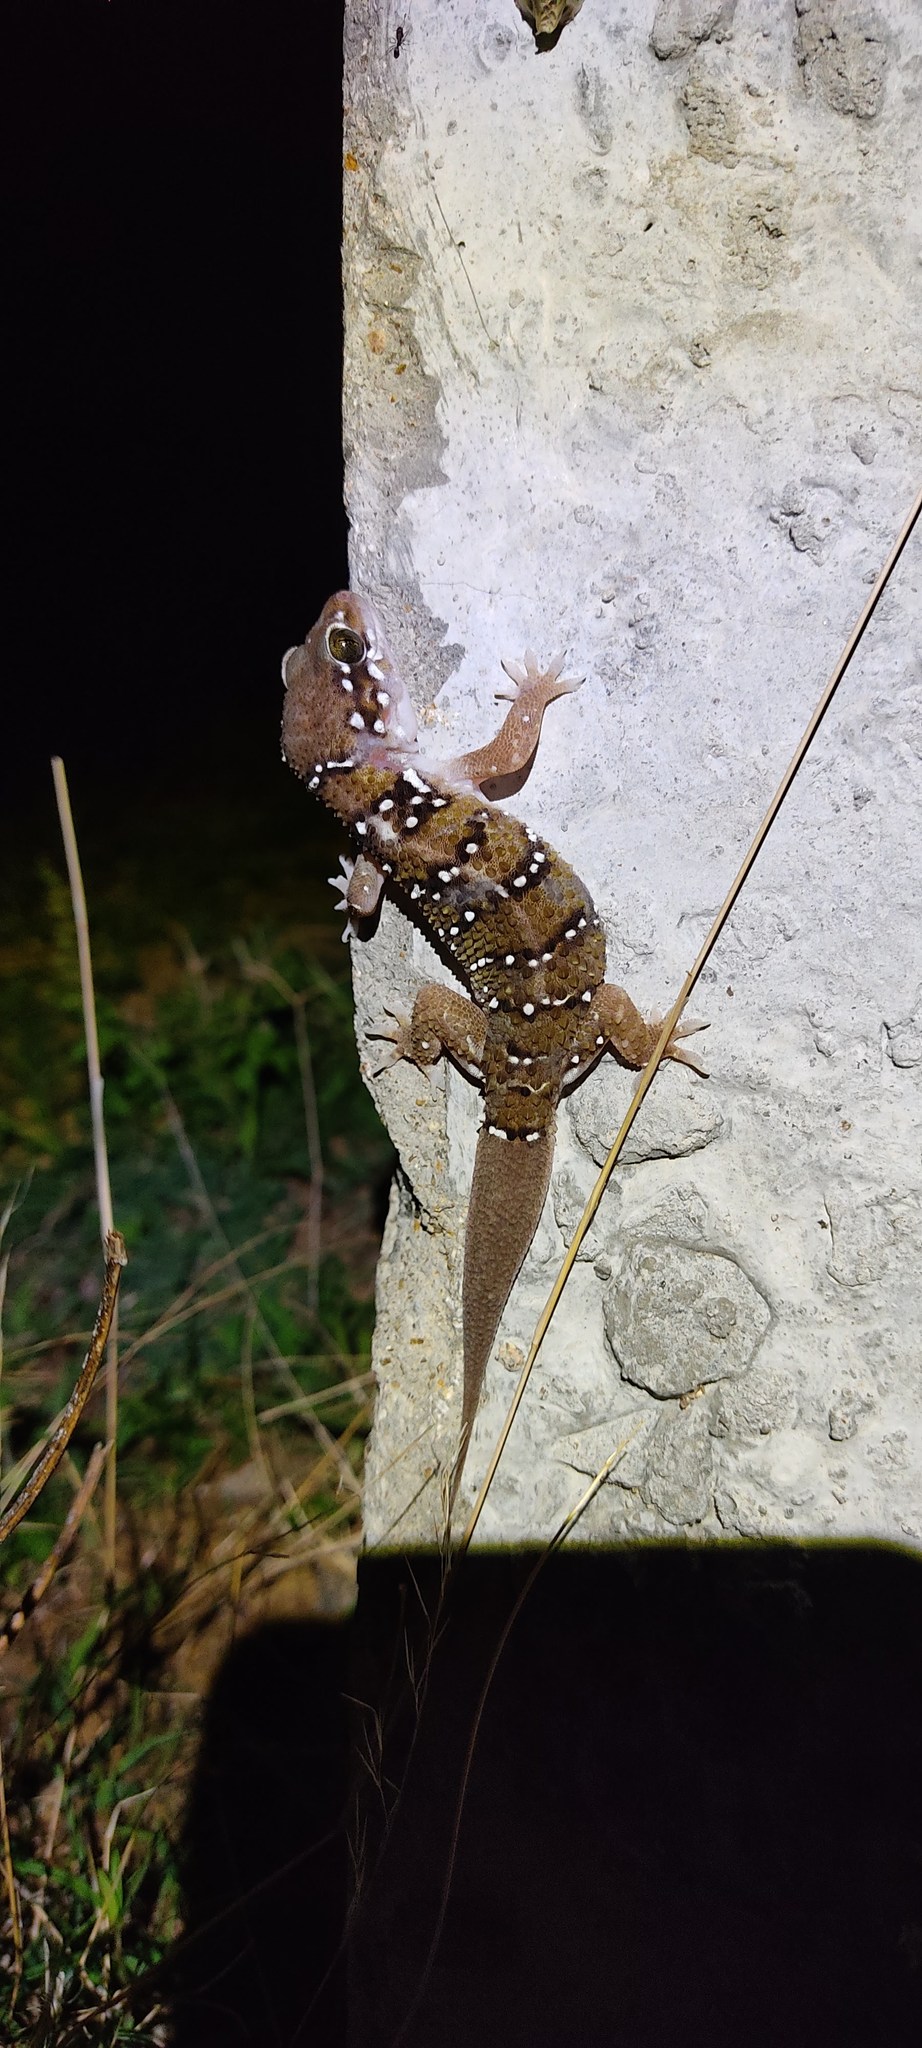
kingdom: Animalia
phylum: Chordata
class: Squamata
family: Gekkonidae
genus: Hemidactylus
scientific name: Hemidactylus triedrus
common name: Blotched house gecko
